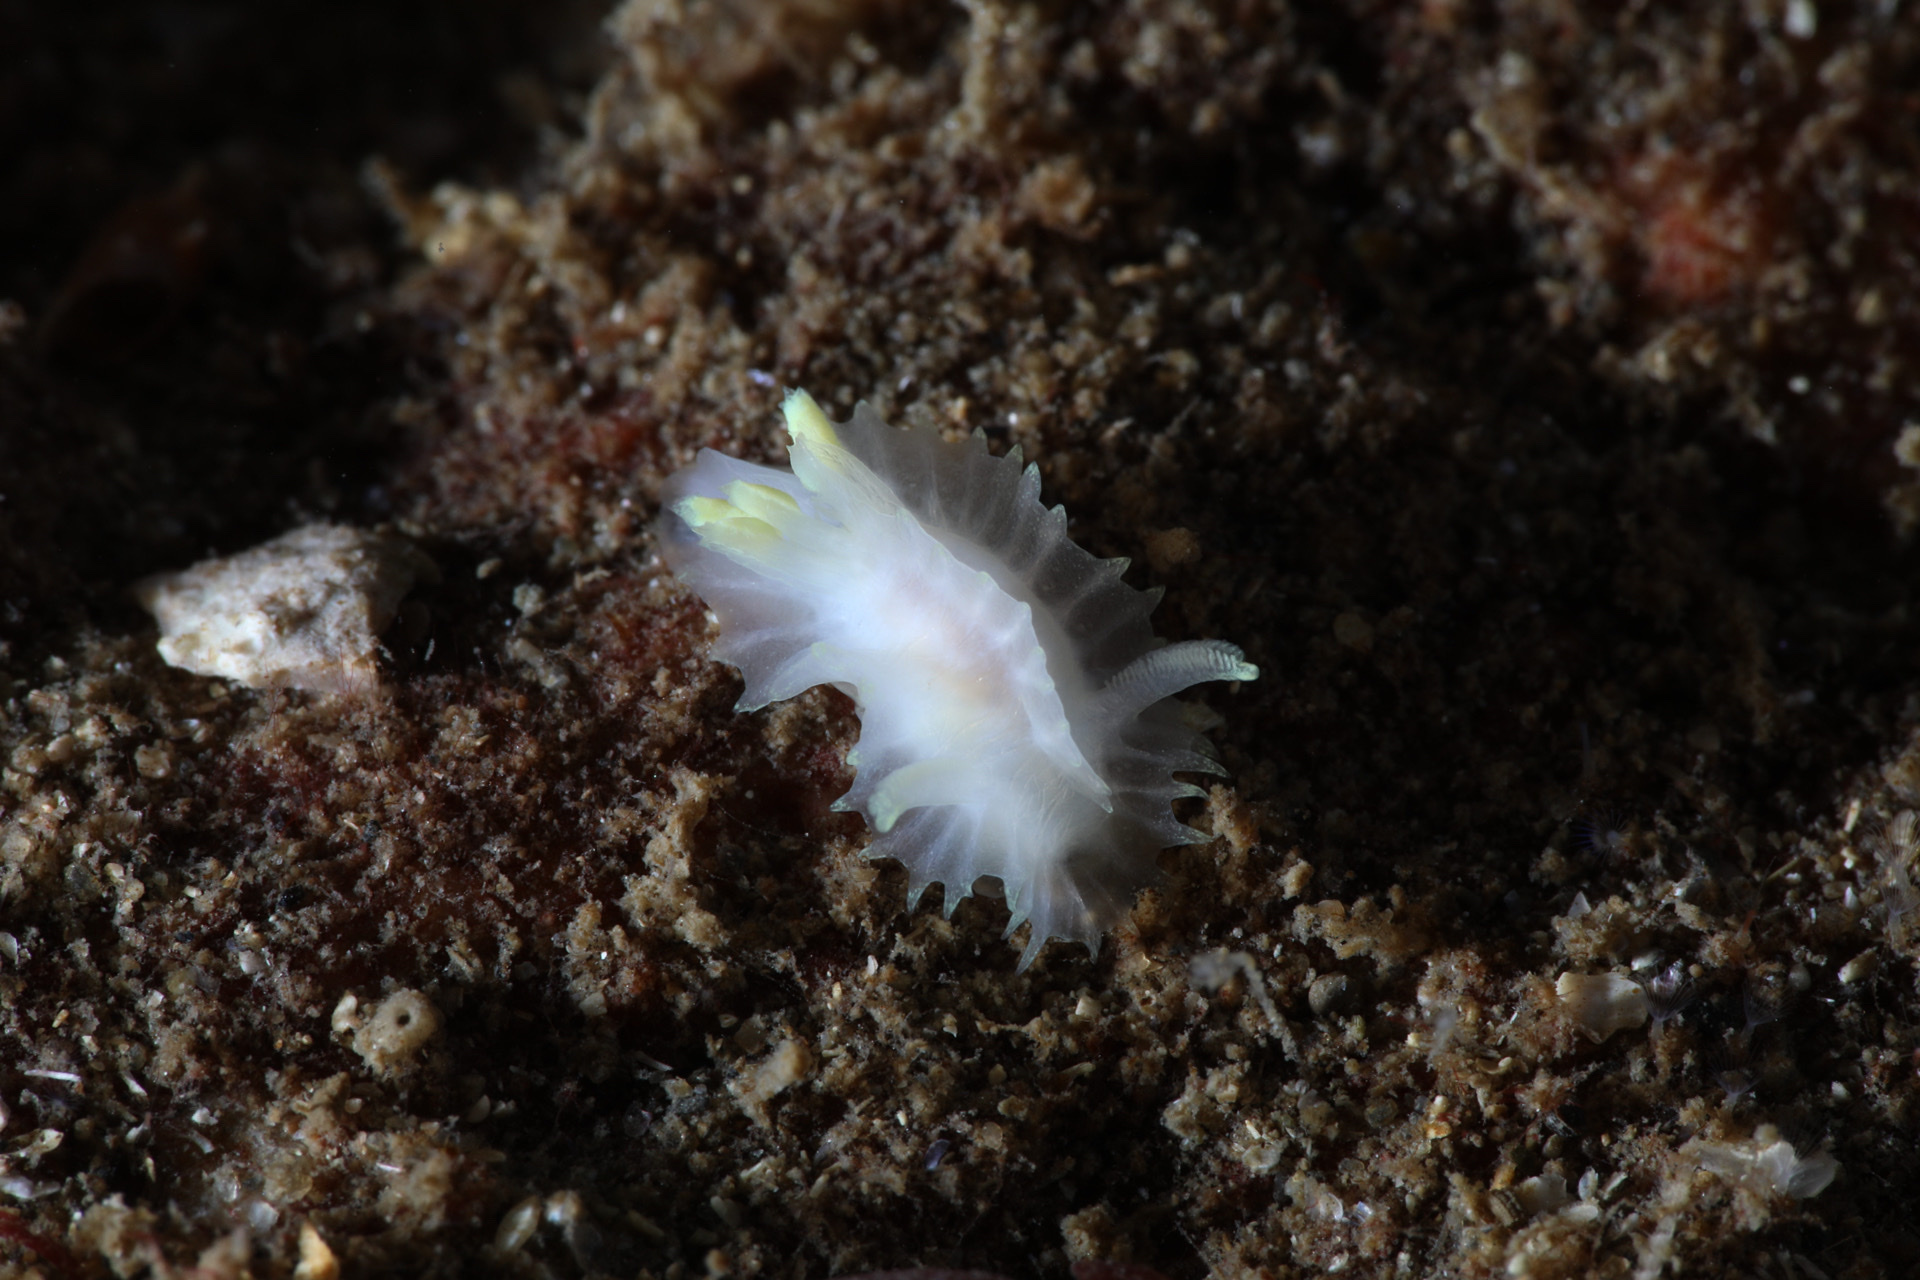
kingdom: Animalia
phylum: Mollusca
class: Gastropoda
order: Nudibranchia
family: Goniodorididae
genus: Lophodoris
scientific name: Lophodoris danielsseni
